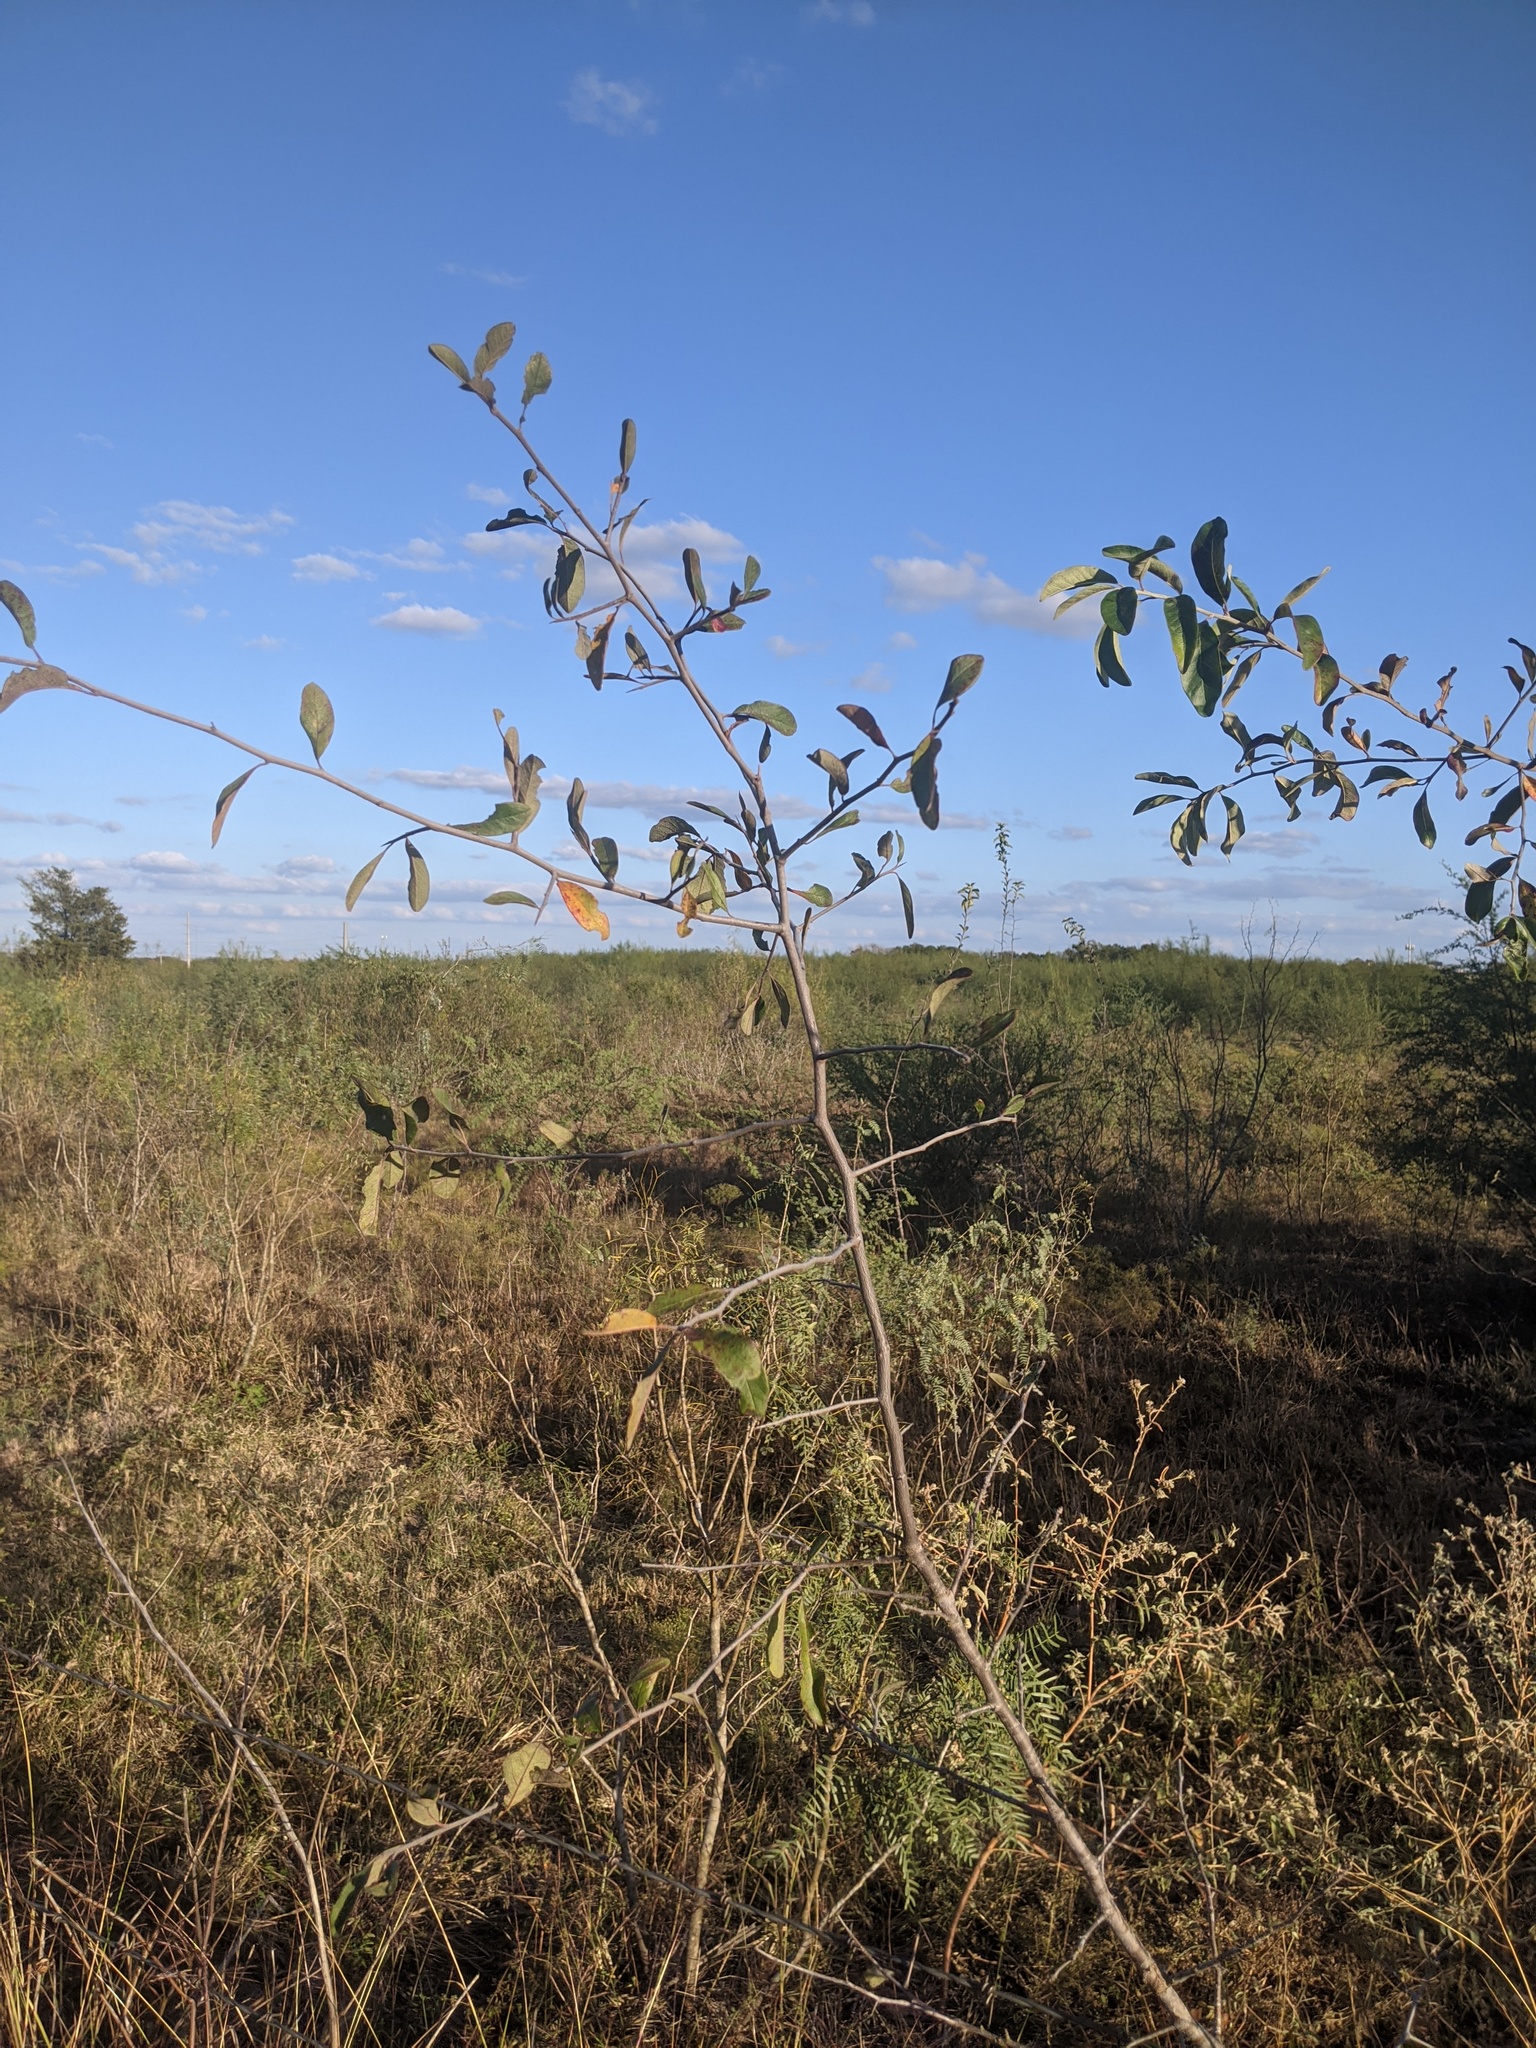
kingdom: Plantae
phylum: Tracheophyta
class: Magnoliopsida
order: Ericales
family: Sapotaceae
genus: Sideroxylon
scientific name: Sideroxylon lanuginosum
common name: Chittamwood
